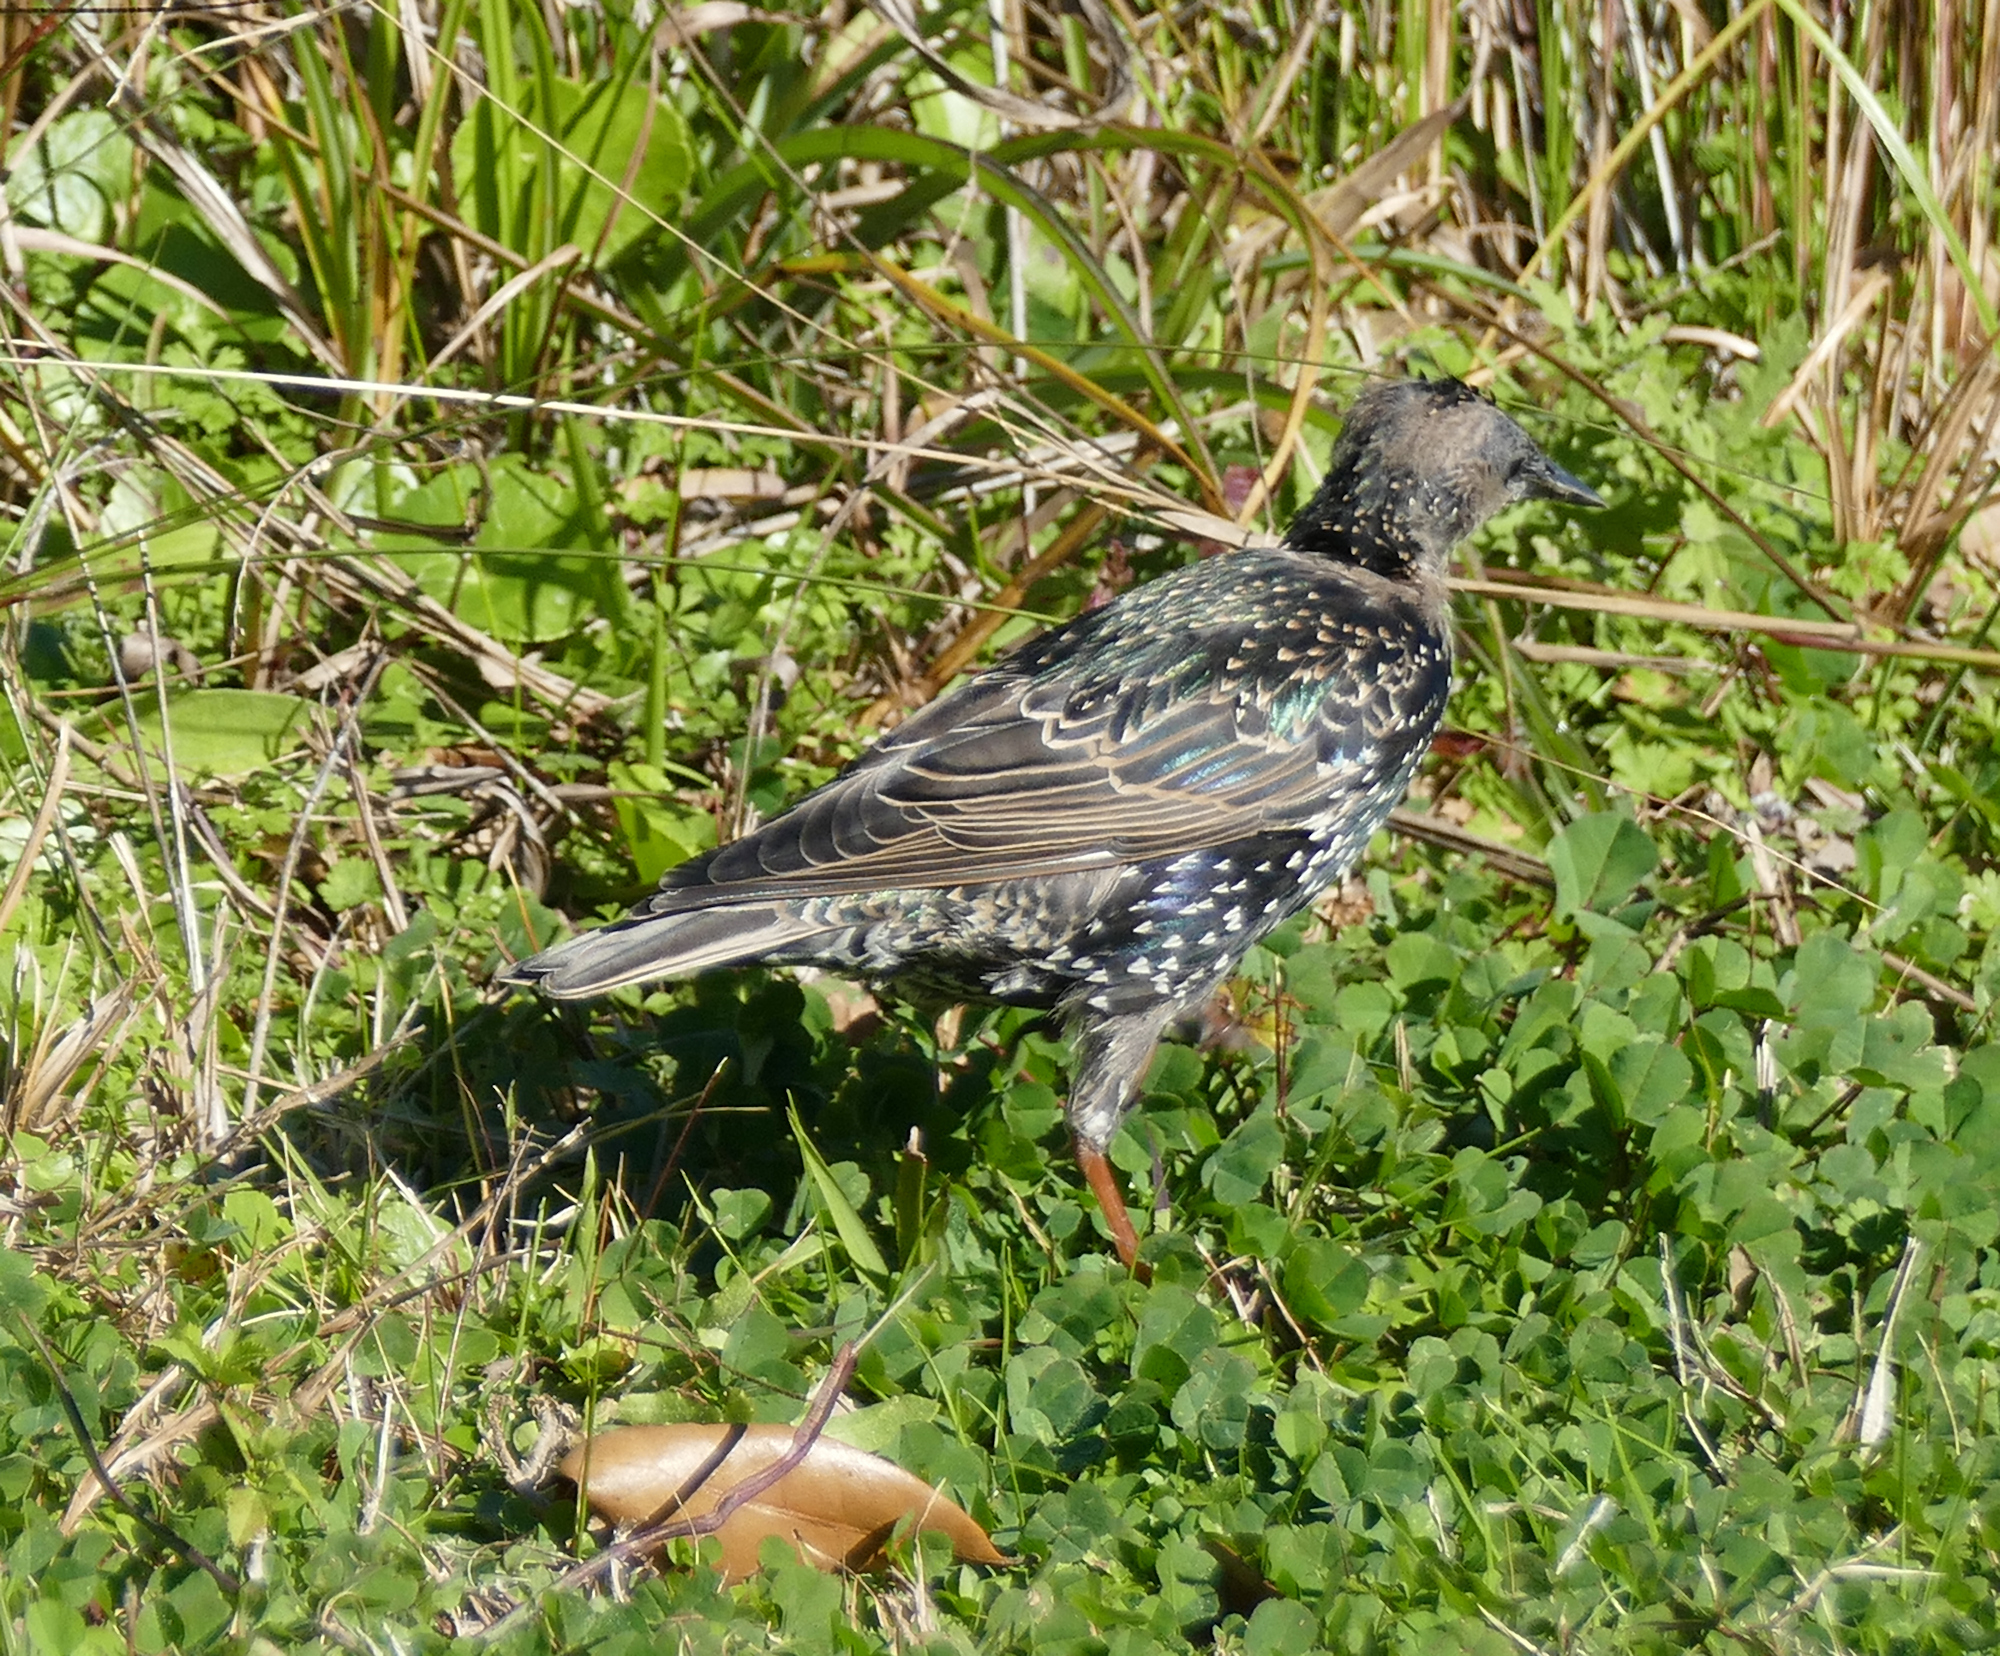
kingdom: Animalia
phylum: Chordata
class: Aves
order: Passeriformes
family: Sturnidae
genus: Sturnus
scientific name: Sturnus vulgaris
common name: Common starling
